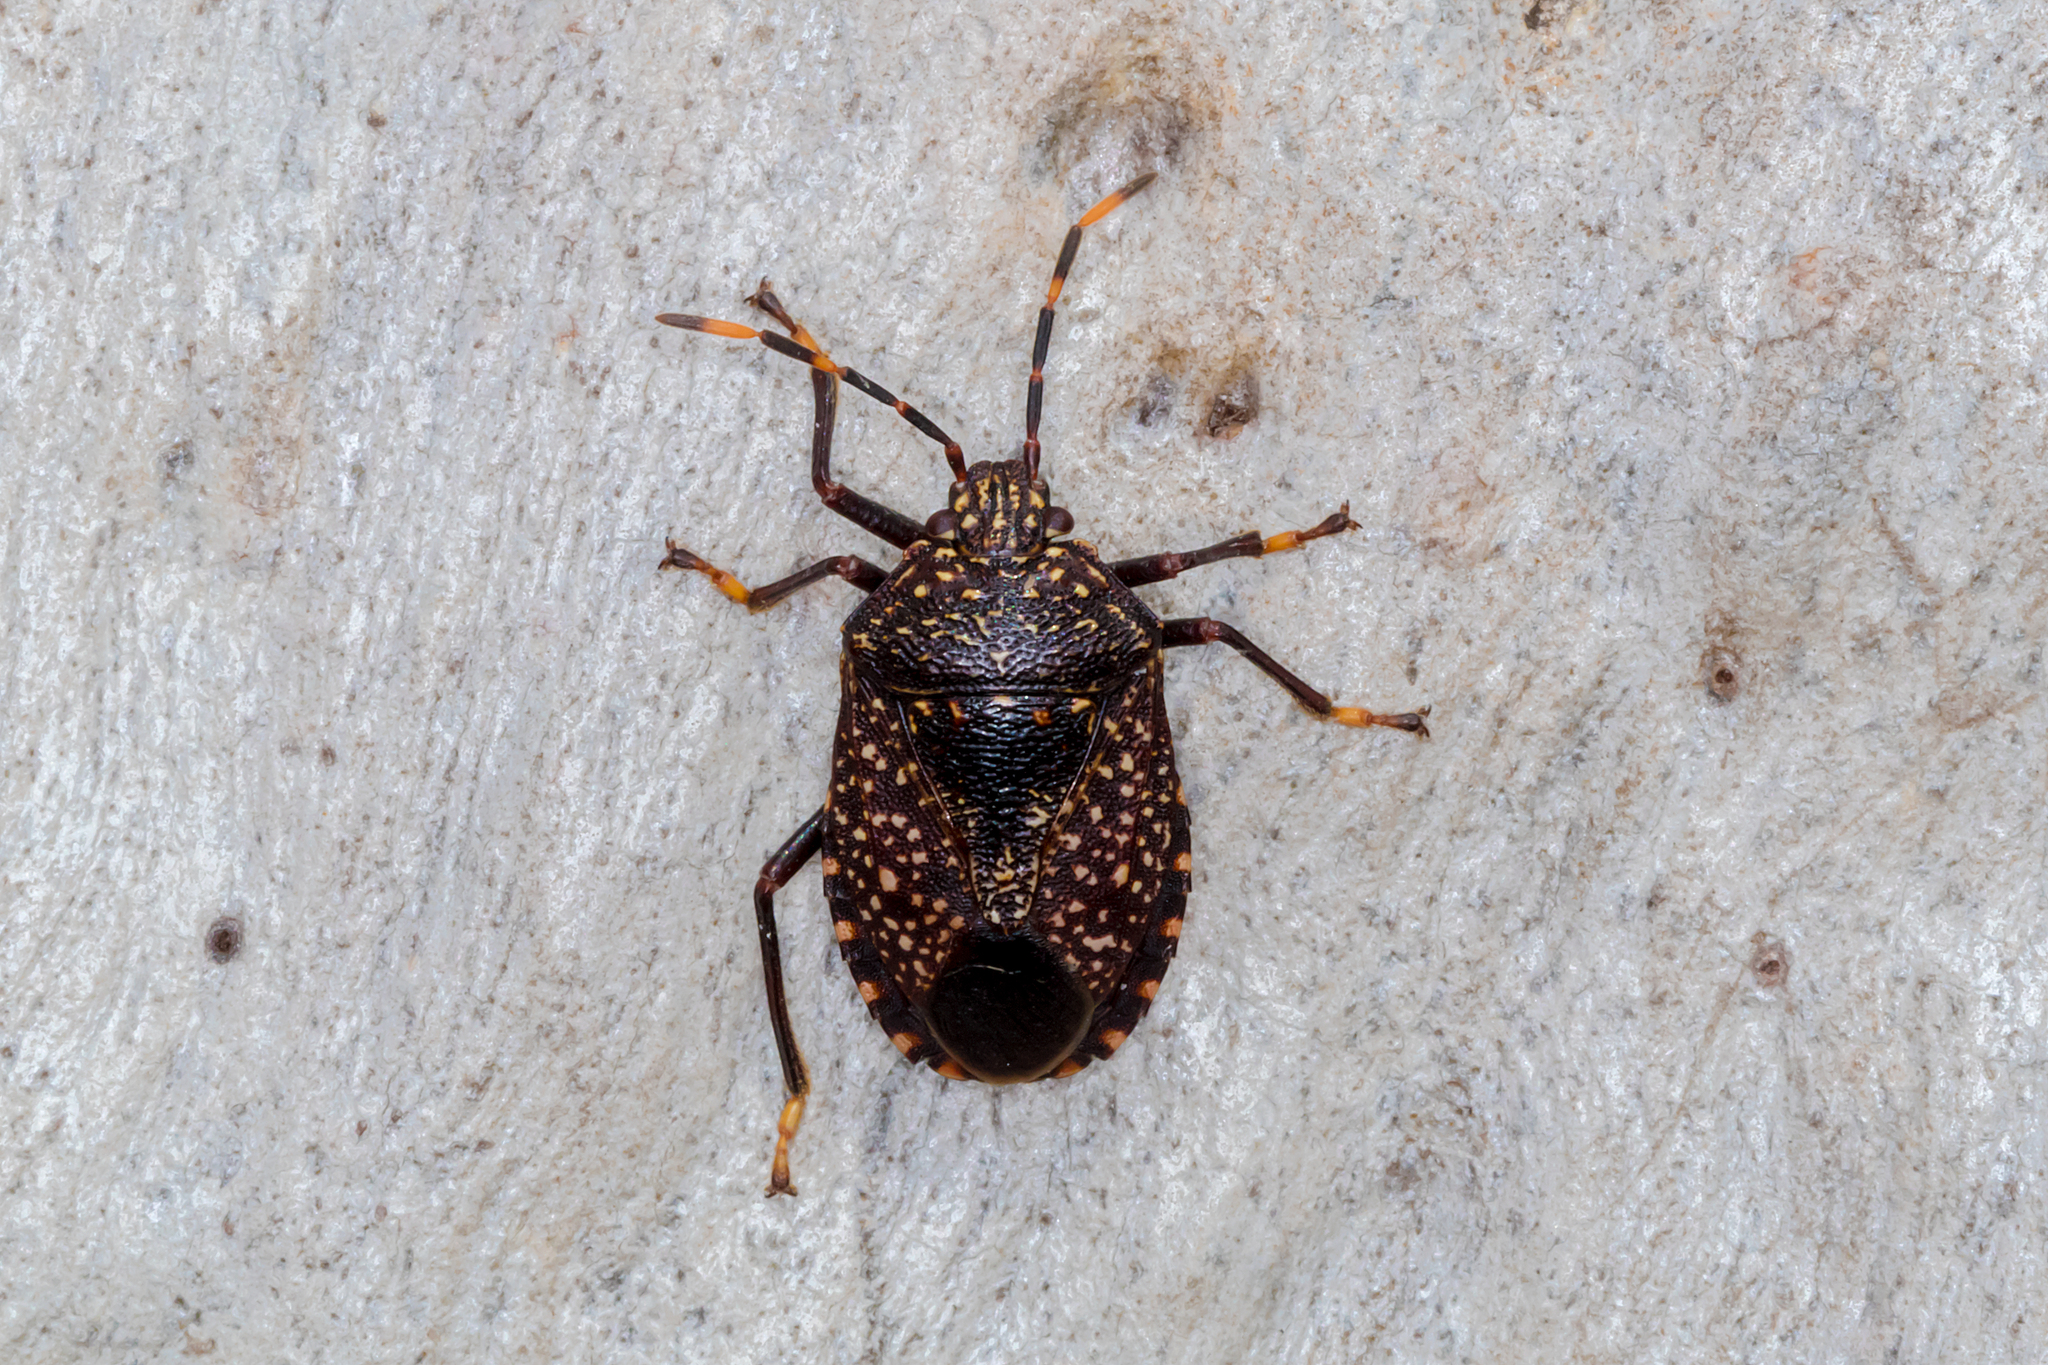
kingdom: Animalia
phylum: Arthropoda
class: Insecta
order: Hemiptera
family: Pentatomidae
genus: Notius
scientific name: Notius
